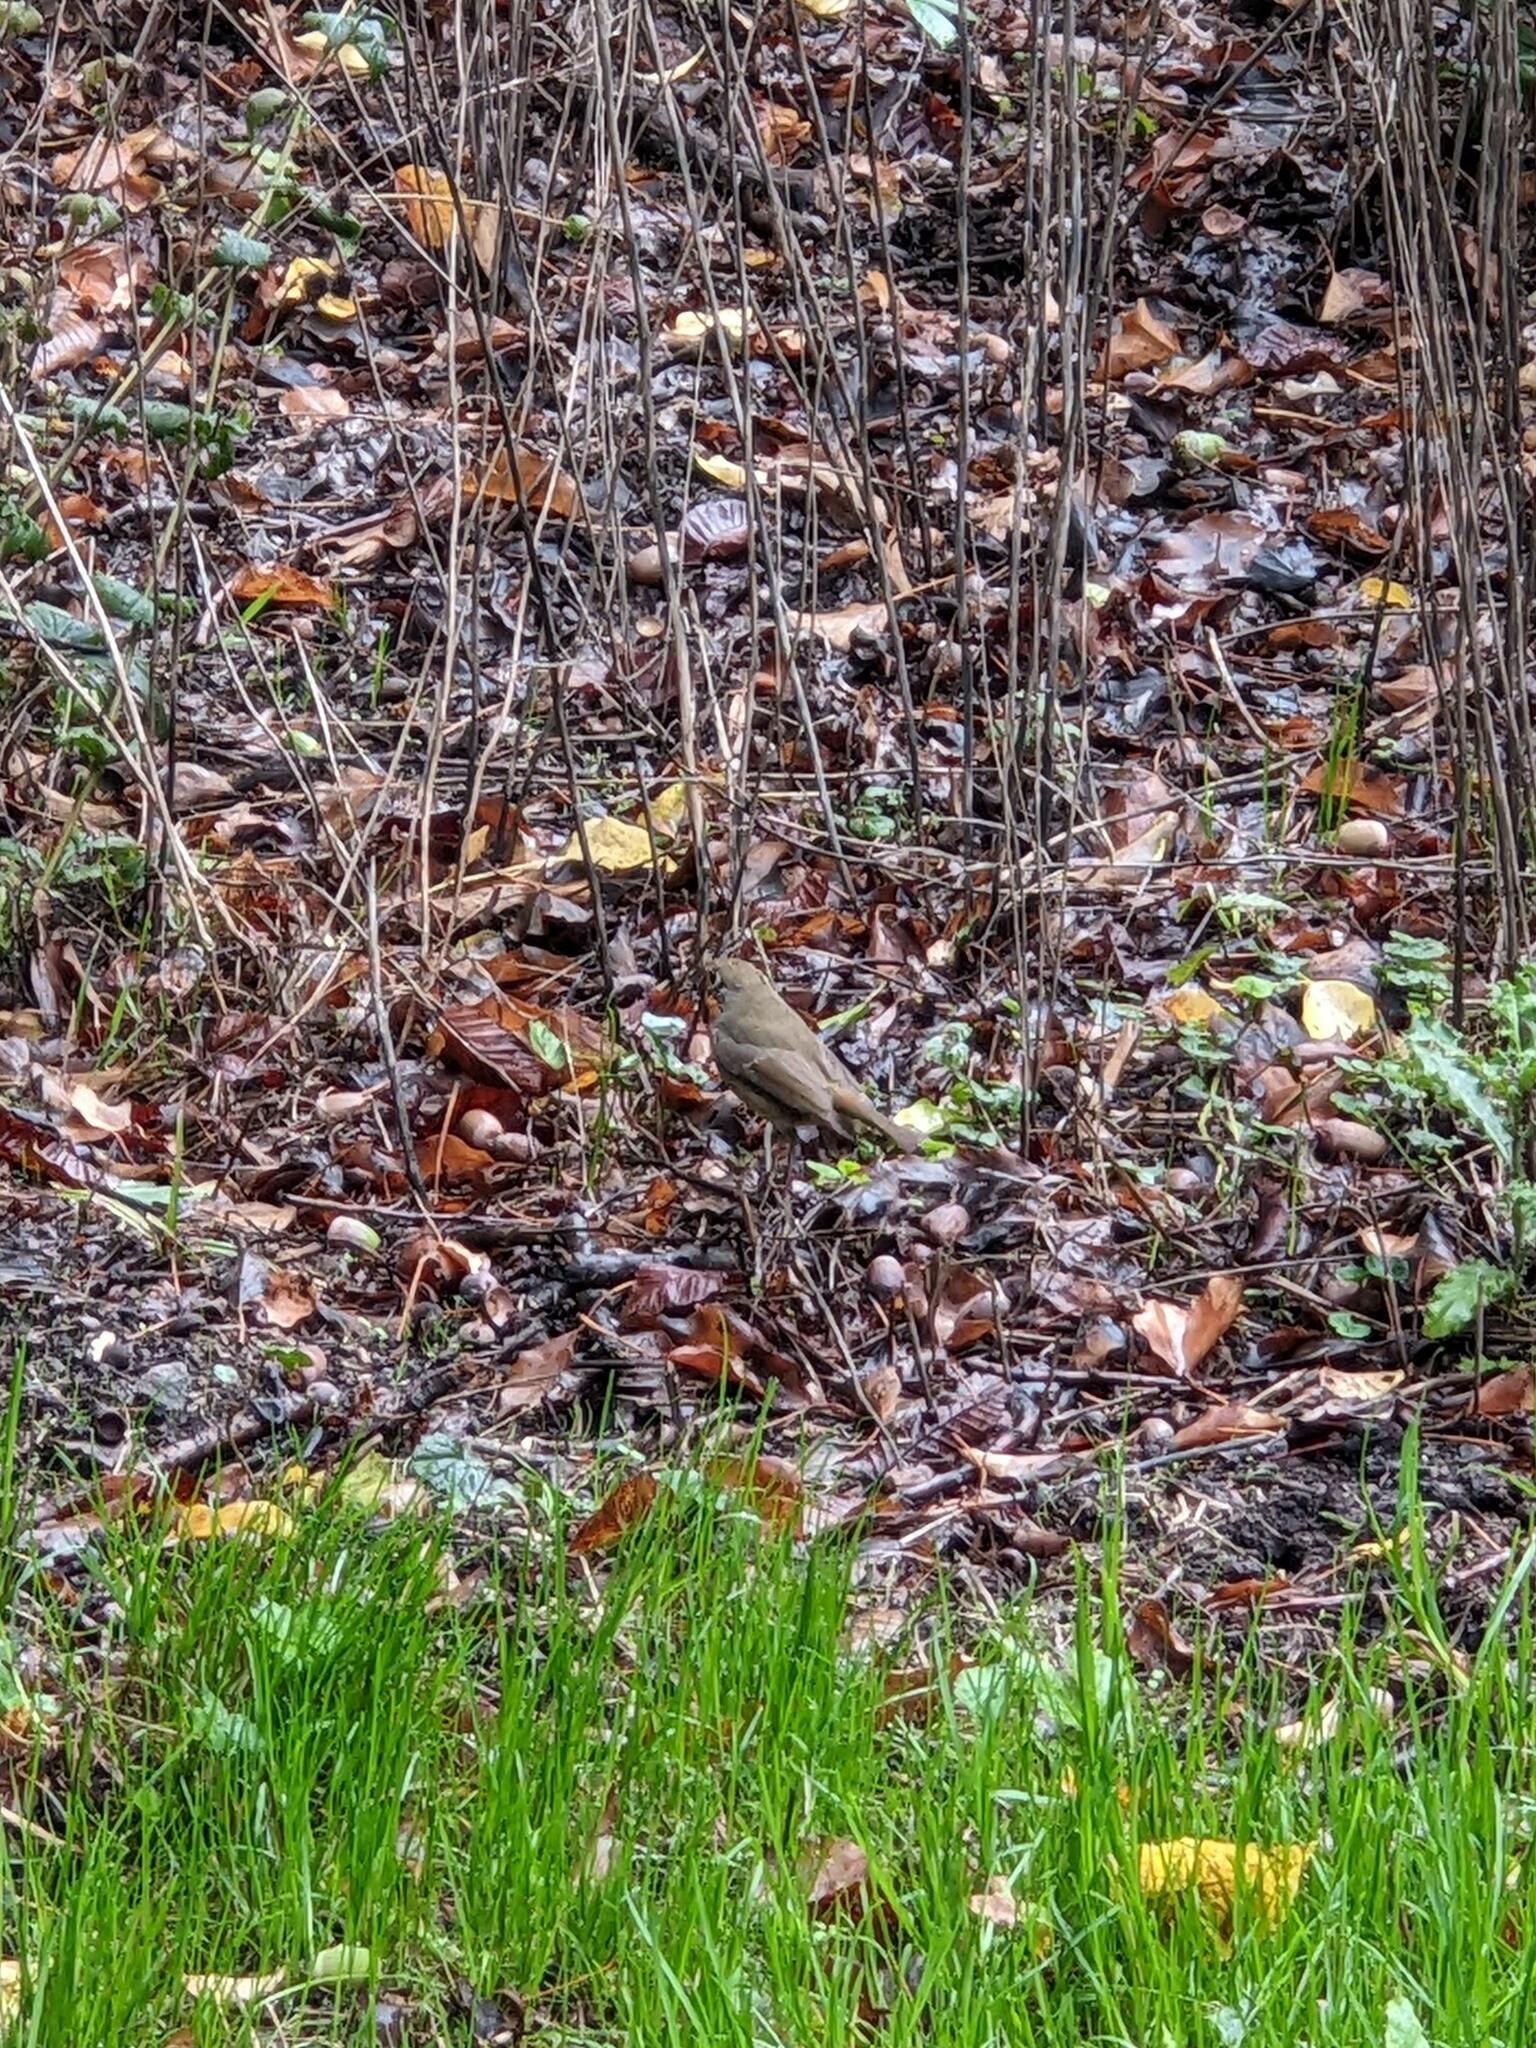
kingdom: Animalia
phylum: Chordata
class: Aves
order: Passeriformes
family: Muscicapidae
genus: Erithacus
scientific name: Erithacus rubecula
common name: European robin
